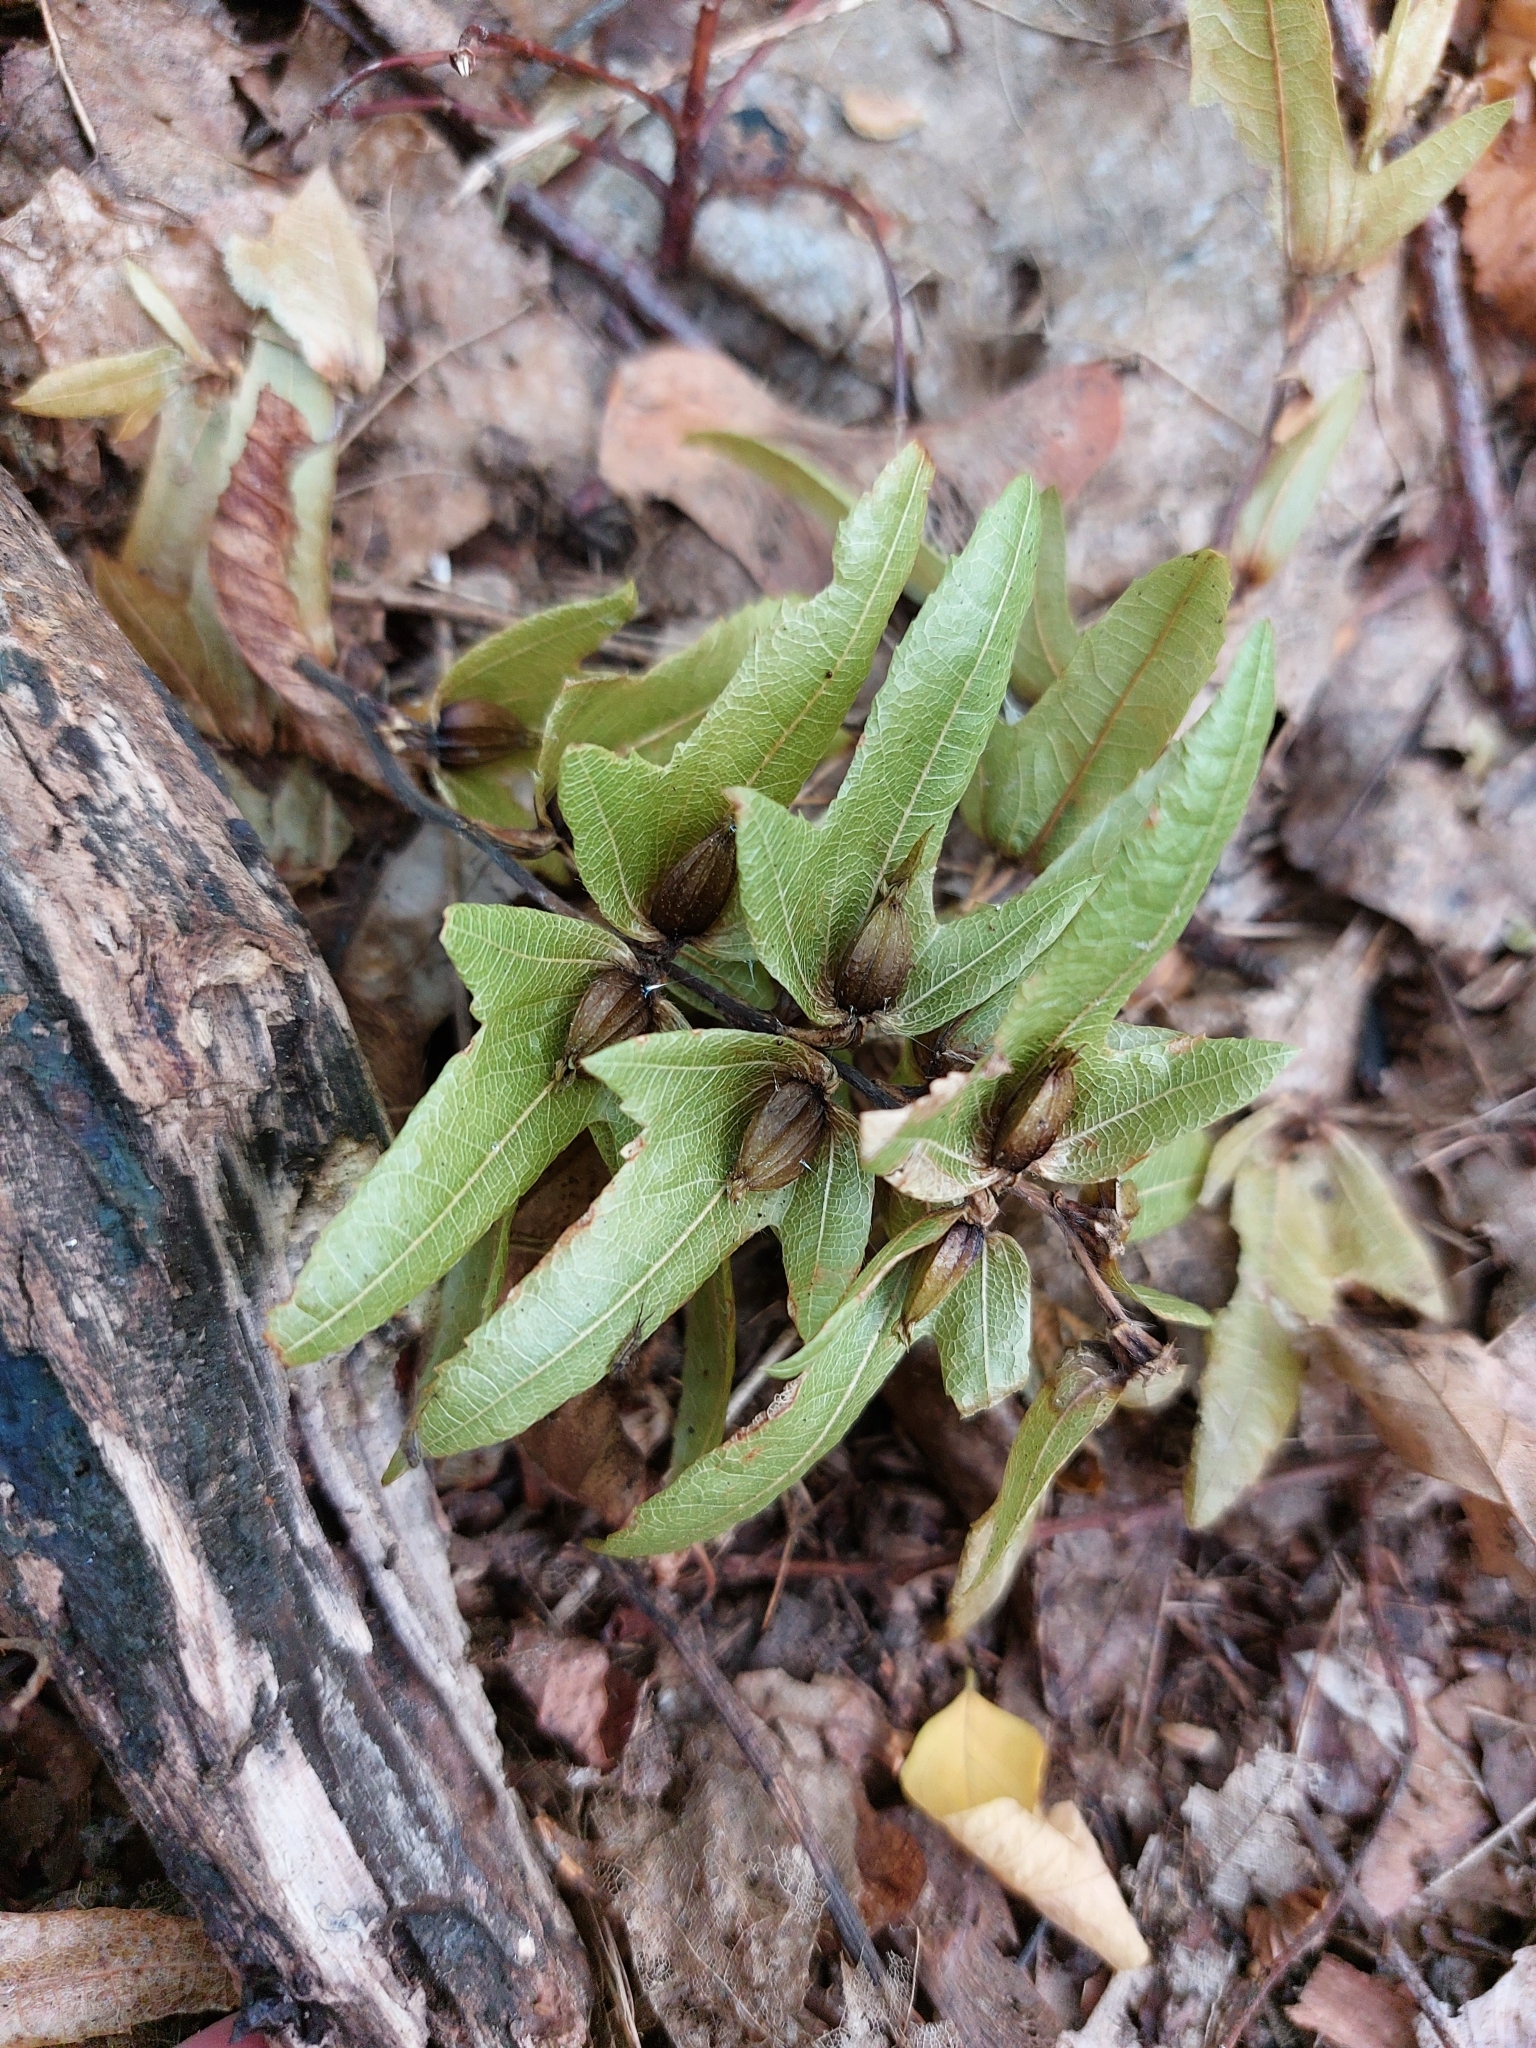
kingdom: Plantae
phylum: Tracheophyta
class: Magnoliopsida
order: Fagales
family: Betulaceae
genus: Carpinus
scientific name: Carpinus betulus
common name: Hornbeam
